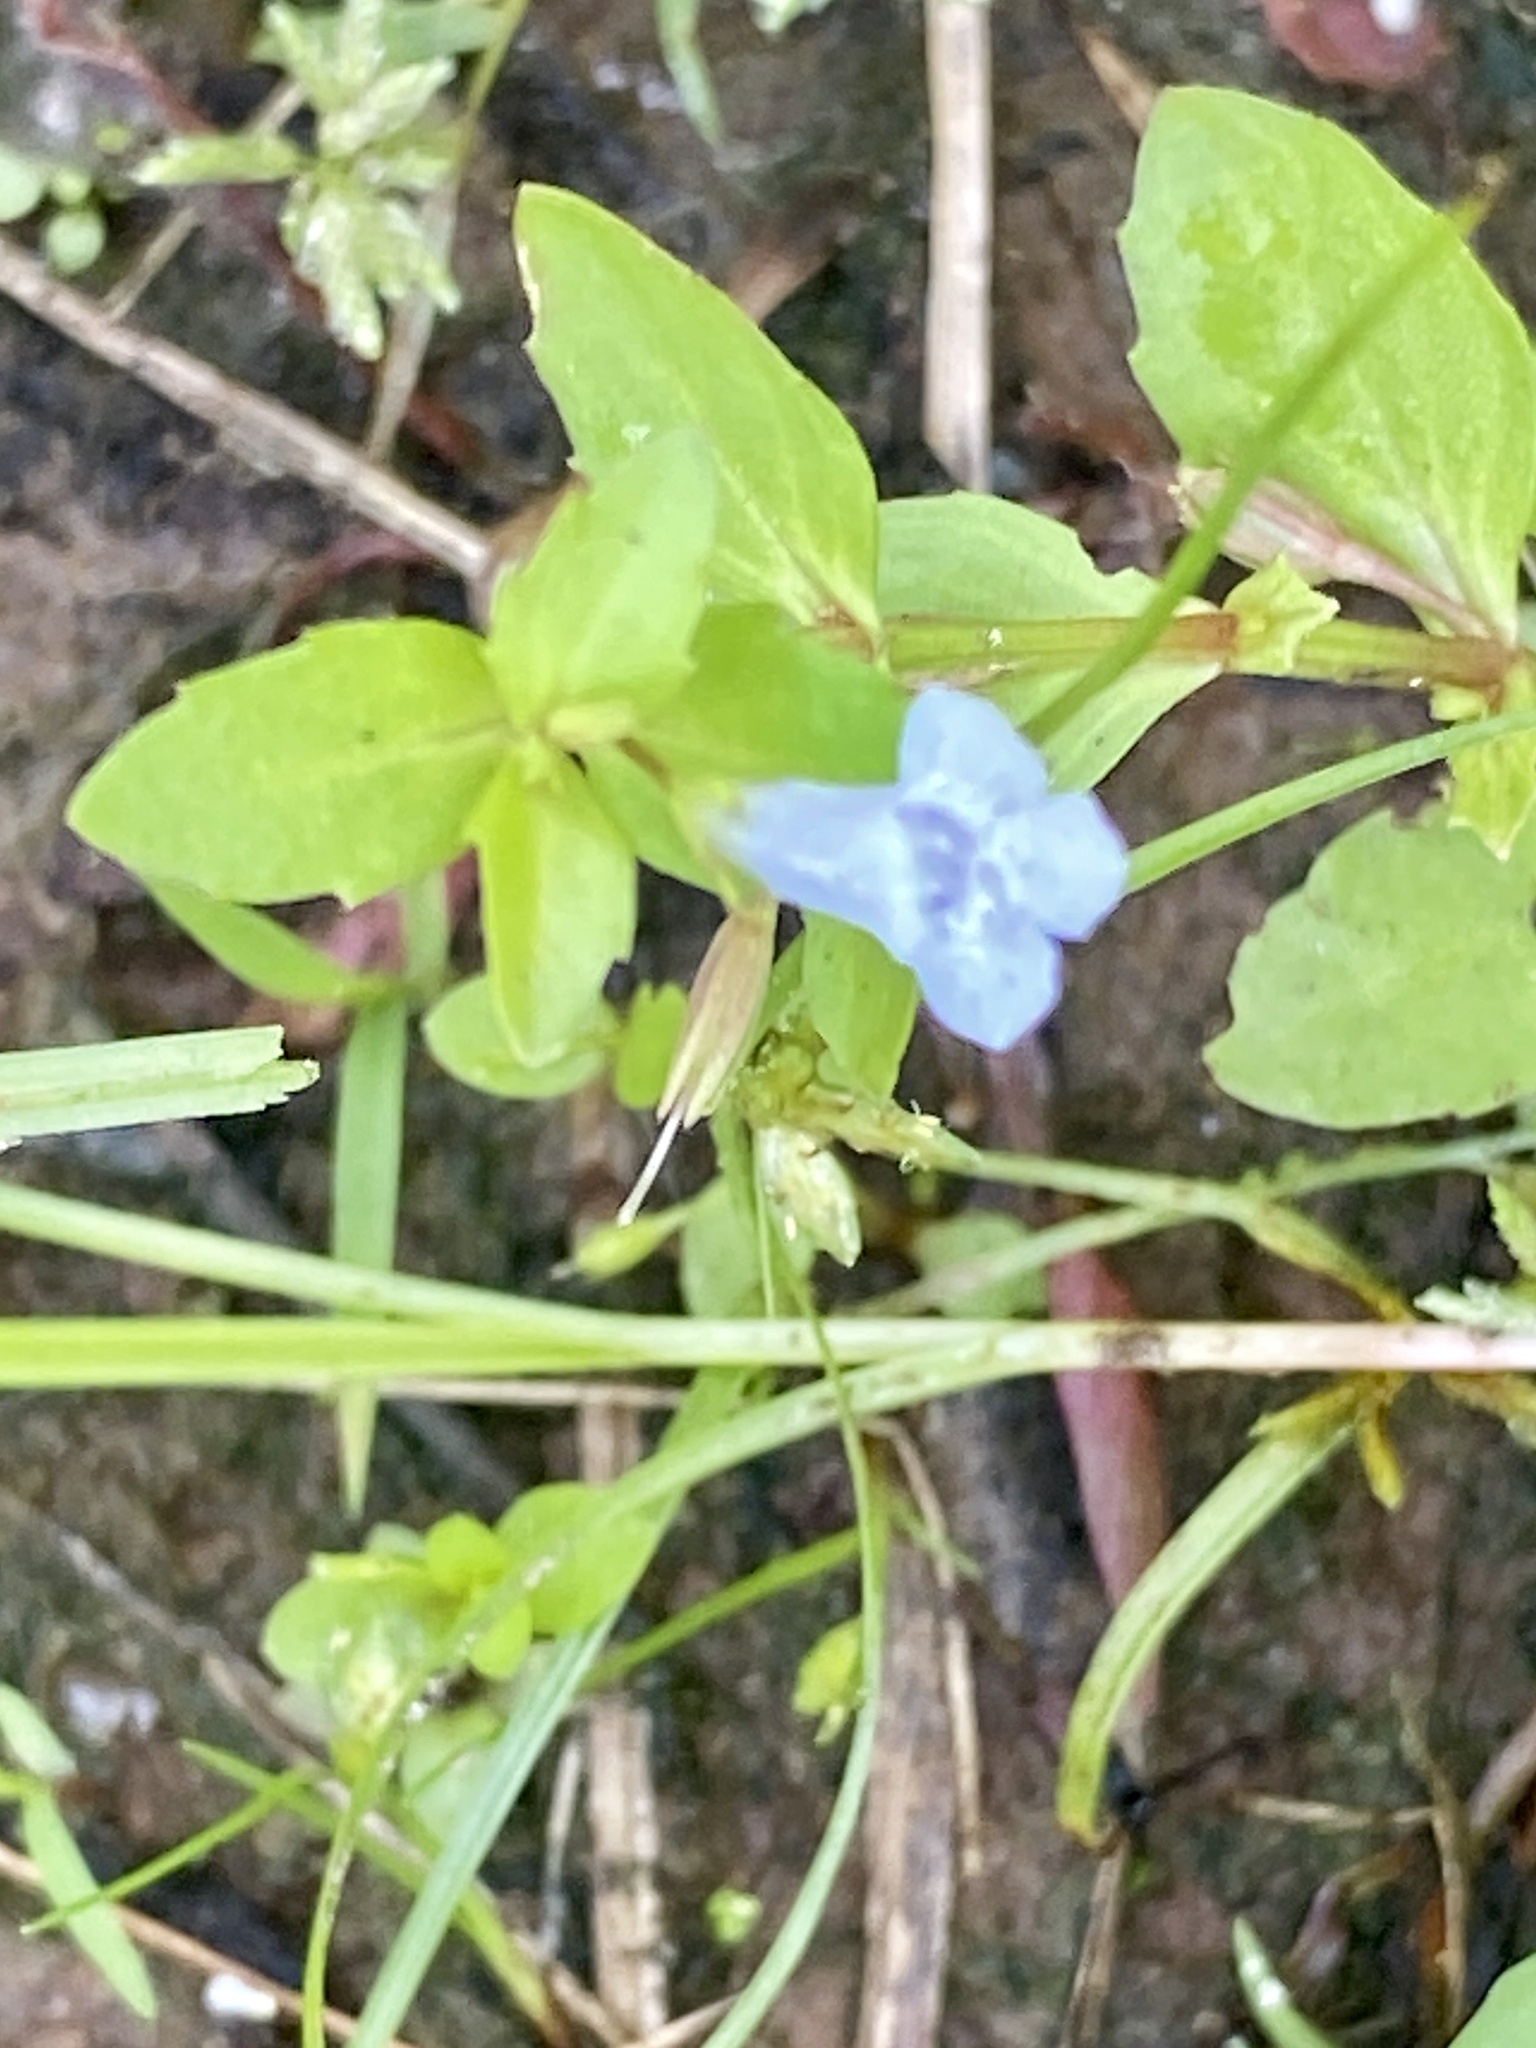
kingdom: Plantae
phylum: Tracheophyta
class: Magnoliopsida
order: Lamiales
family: Linderniaceae
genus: Lindernia
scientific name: Lindernia dubia
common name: Annual false pimpernel
